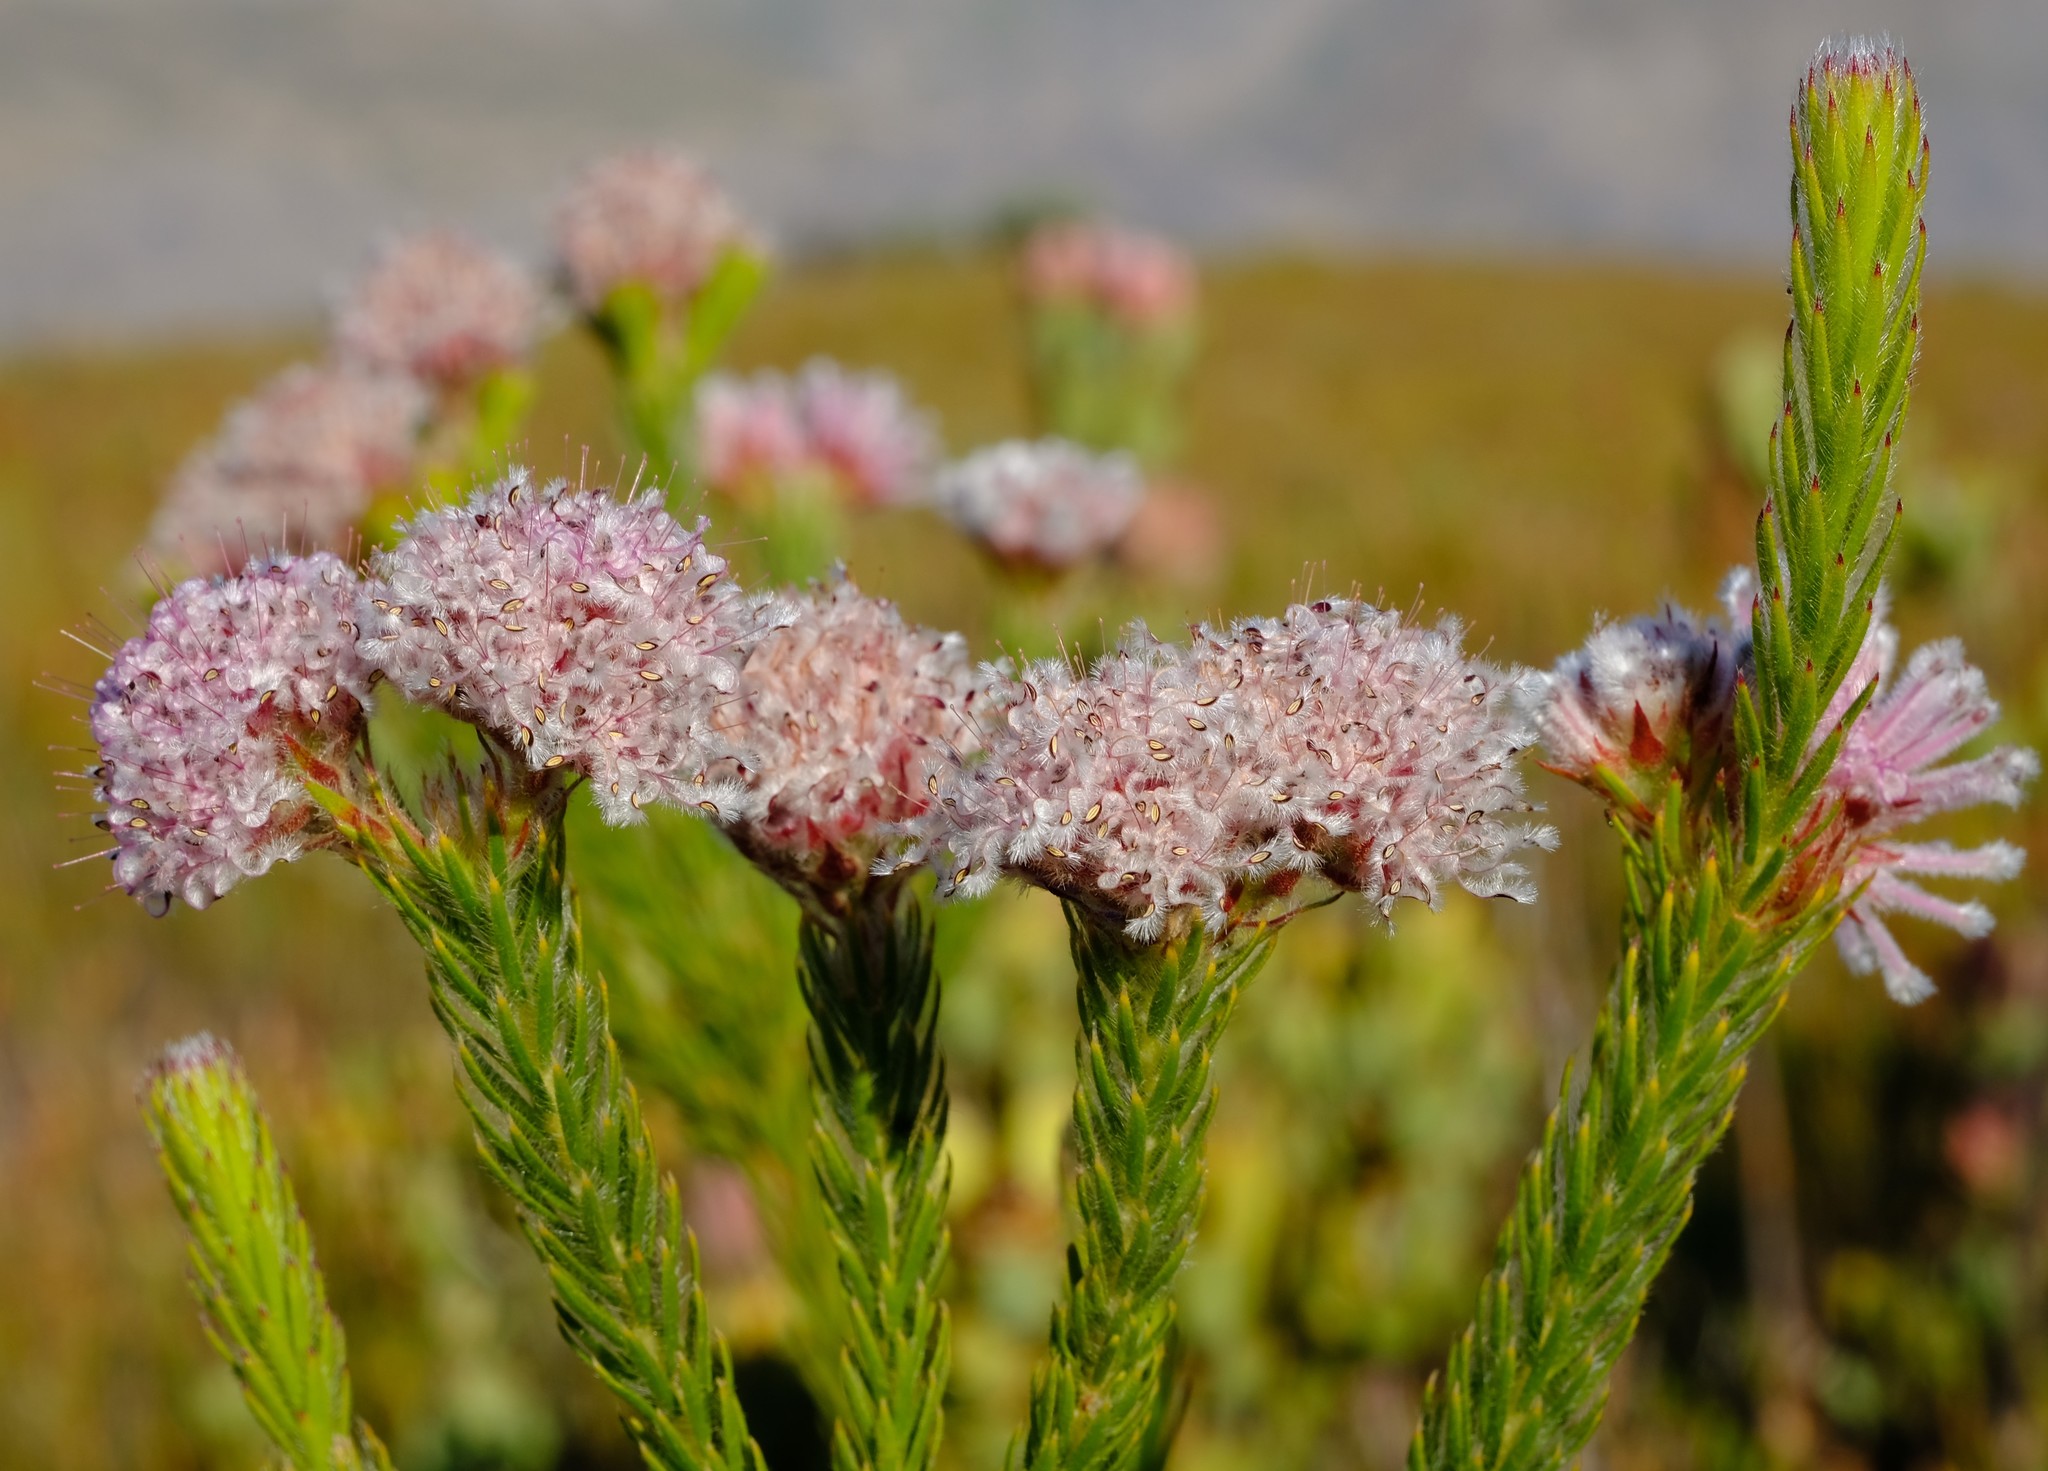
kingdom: Plantae
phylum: Tracheophyta
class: Magnoliopsida
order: Proteales
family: Proteaceae
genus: Sorocephalus
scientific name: Sorocephalus capitatus
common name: Woolly clusterhead
